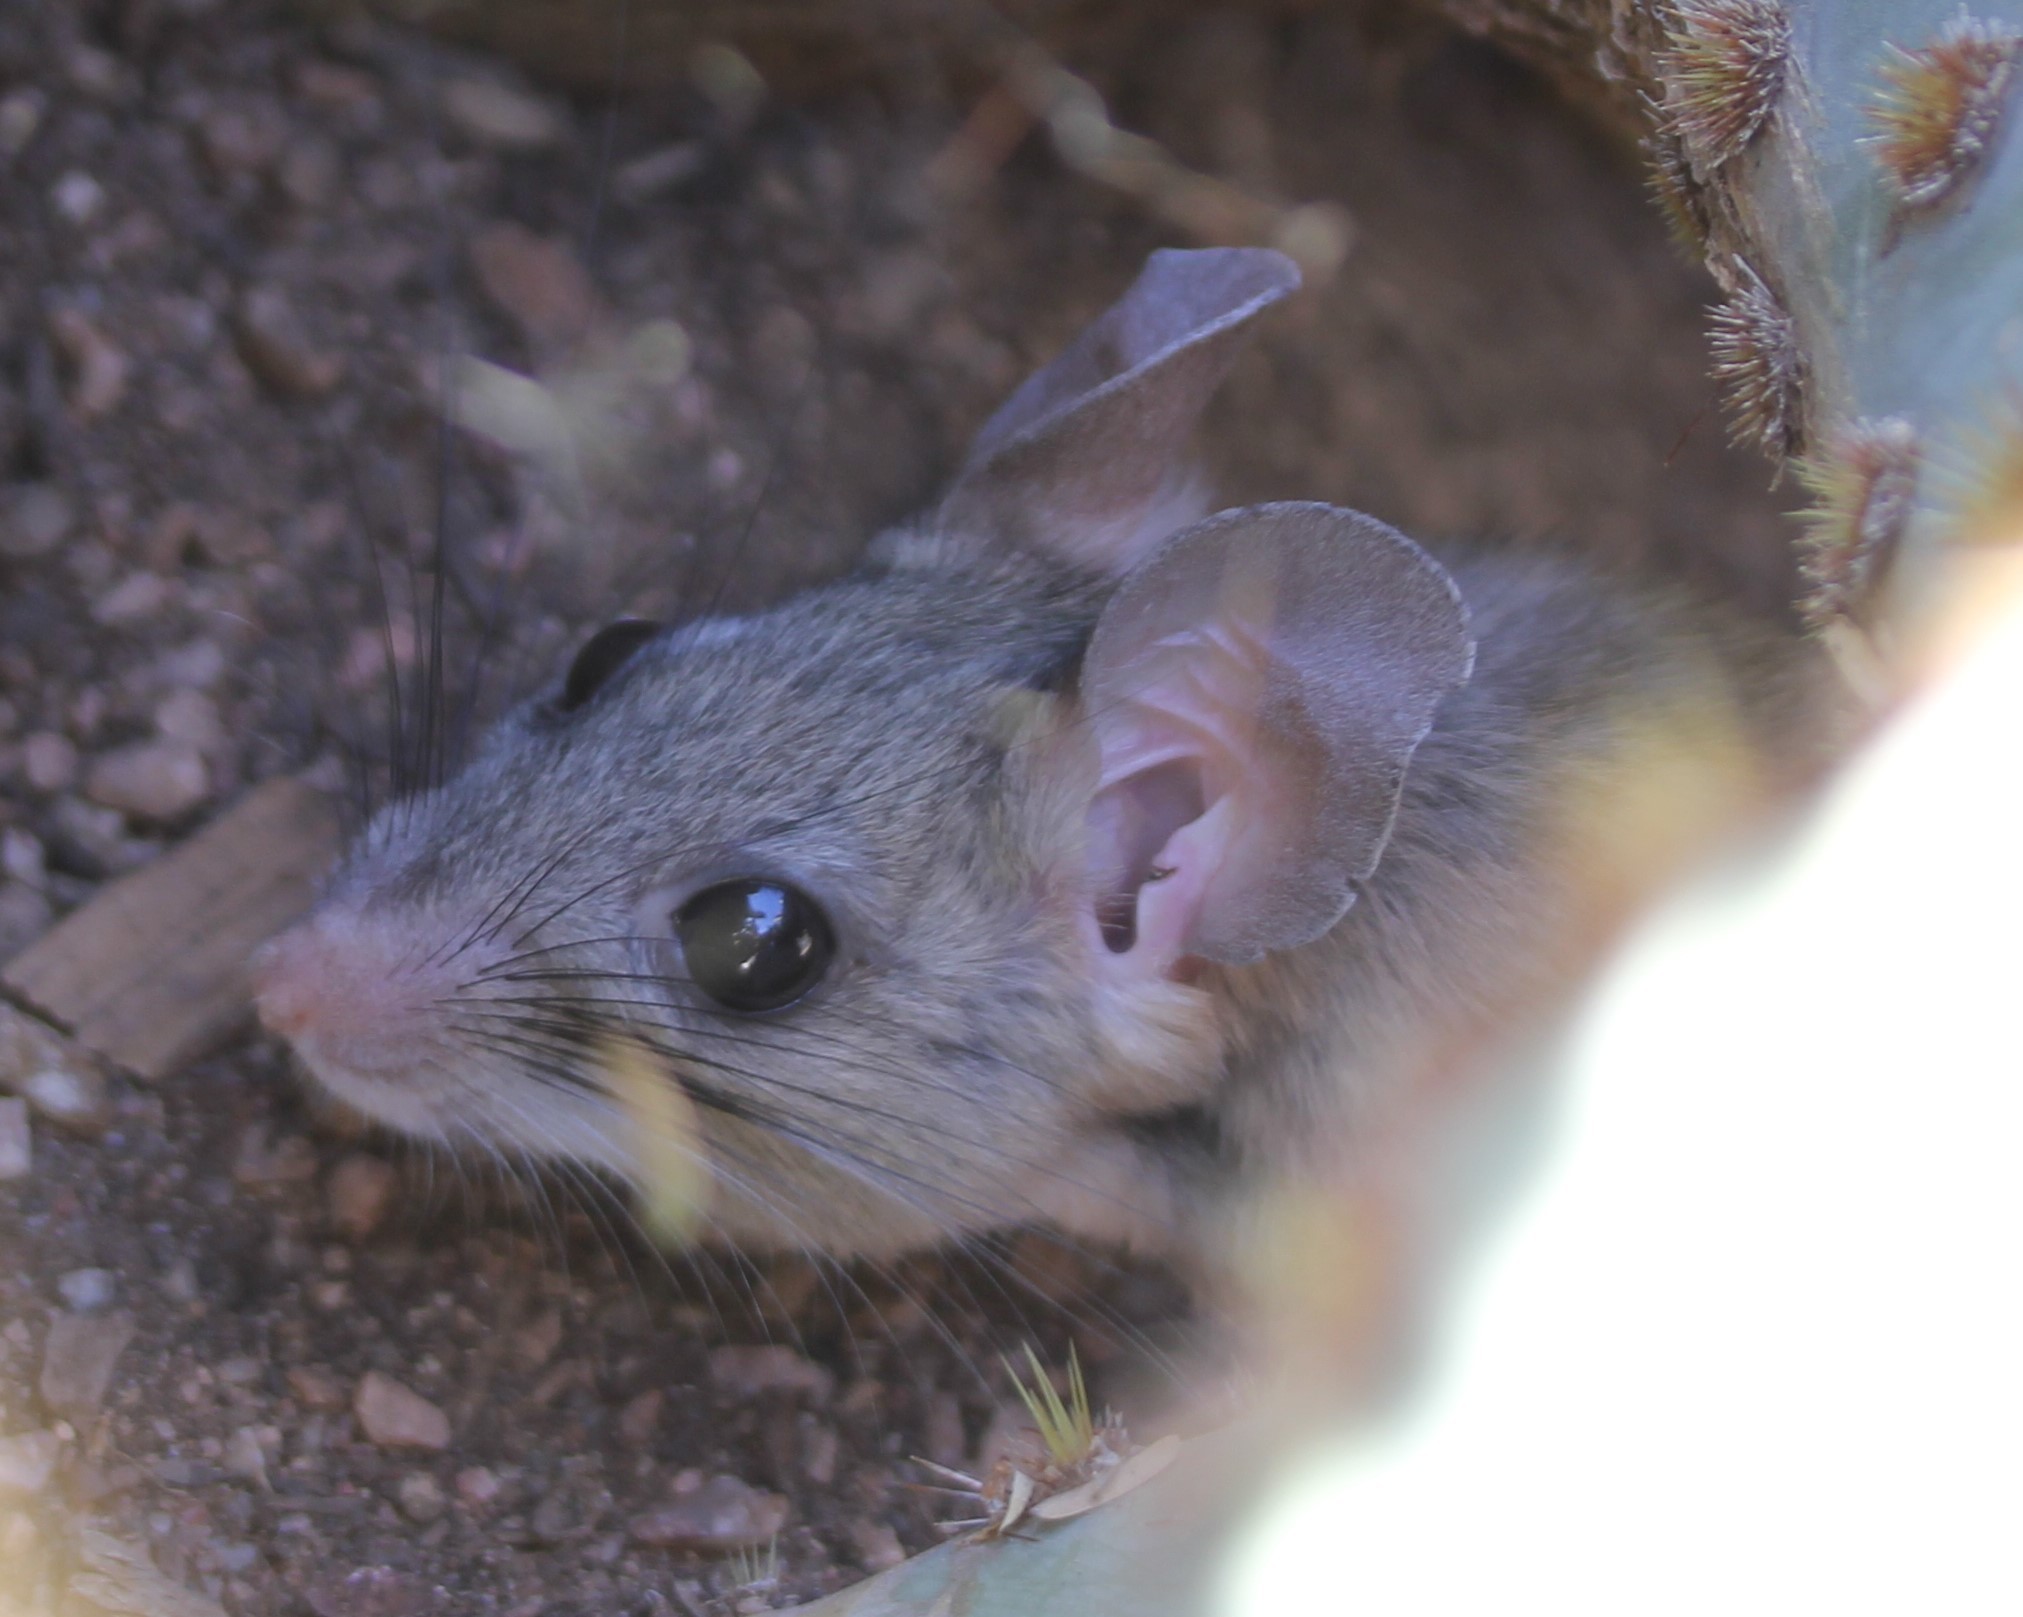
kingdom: Animalia
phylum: Chordata
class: Mammalia
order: Rodentia
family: Cricetidae
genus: Neotoma
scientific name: Neotoma albigula
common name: White-throated woodrat
